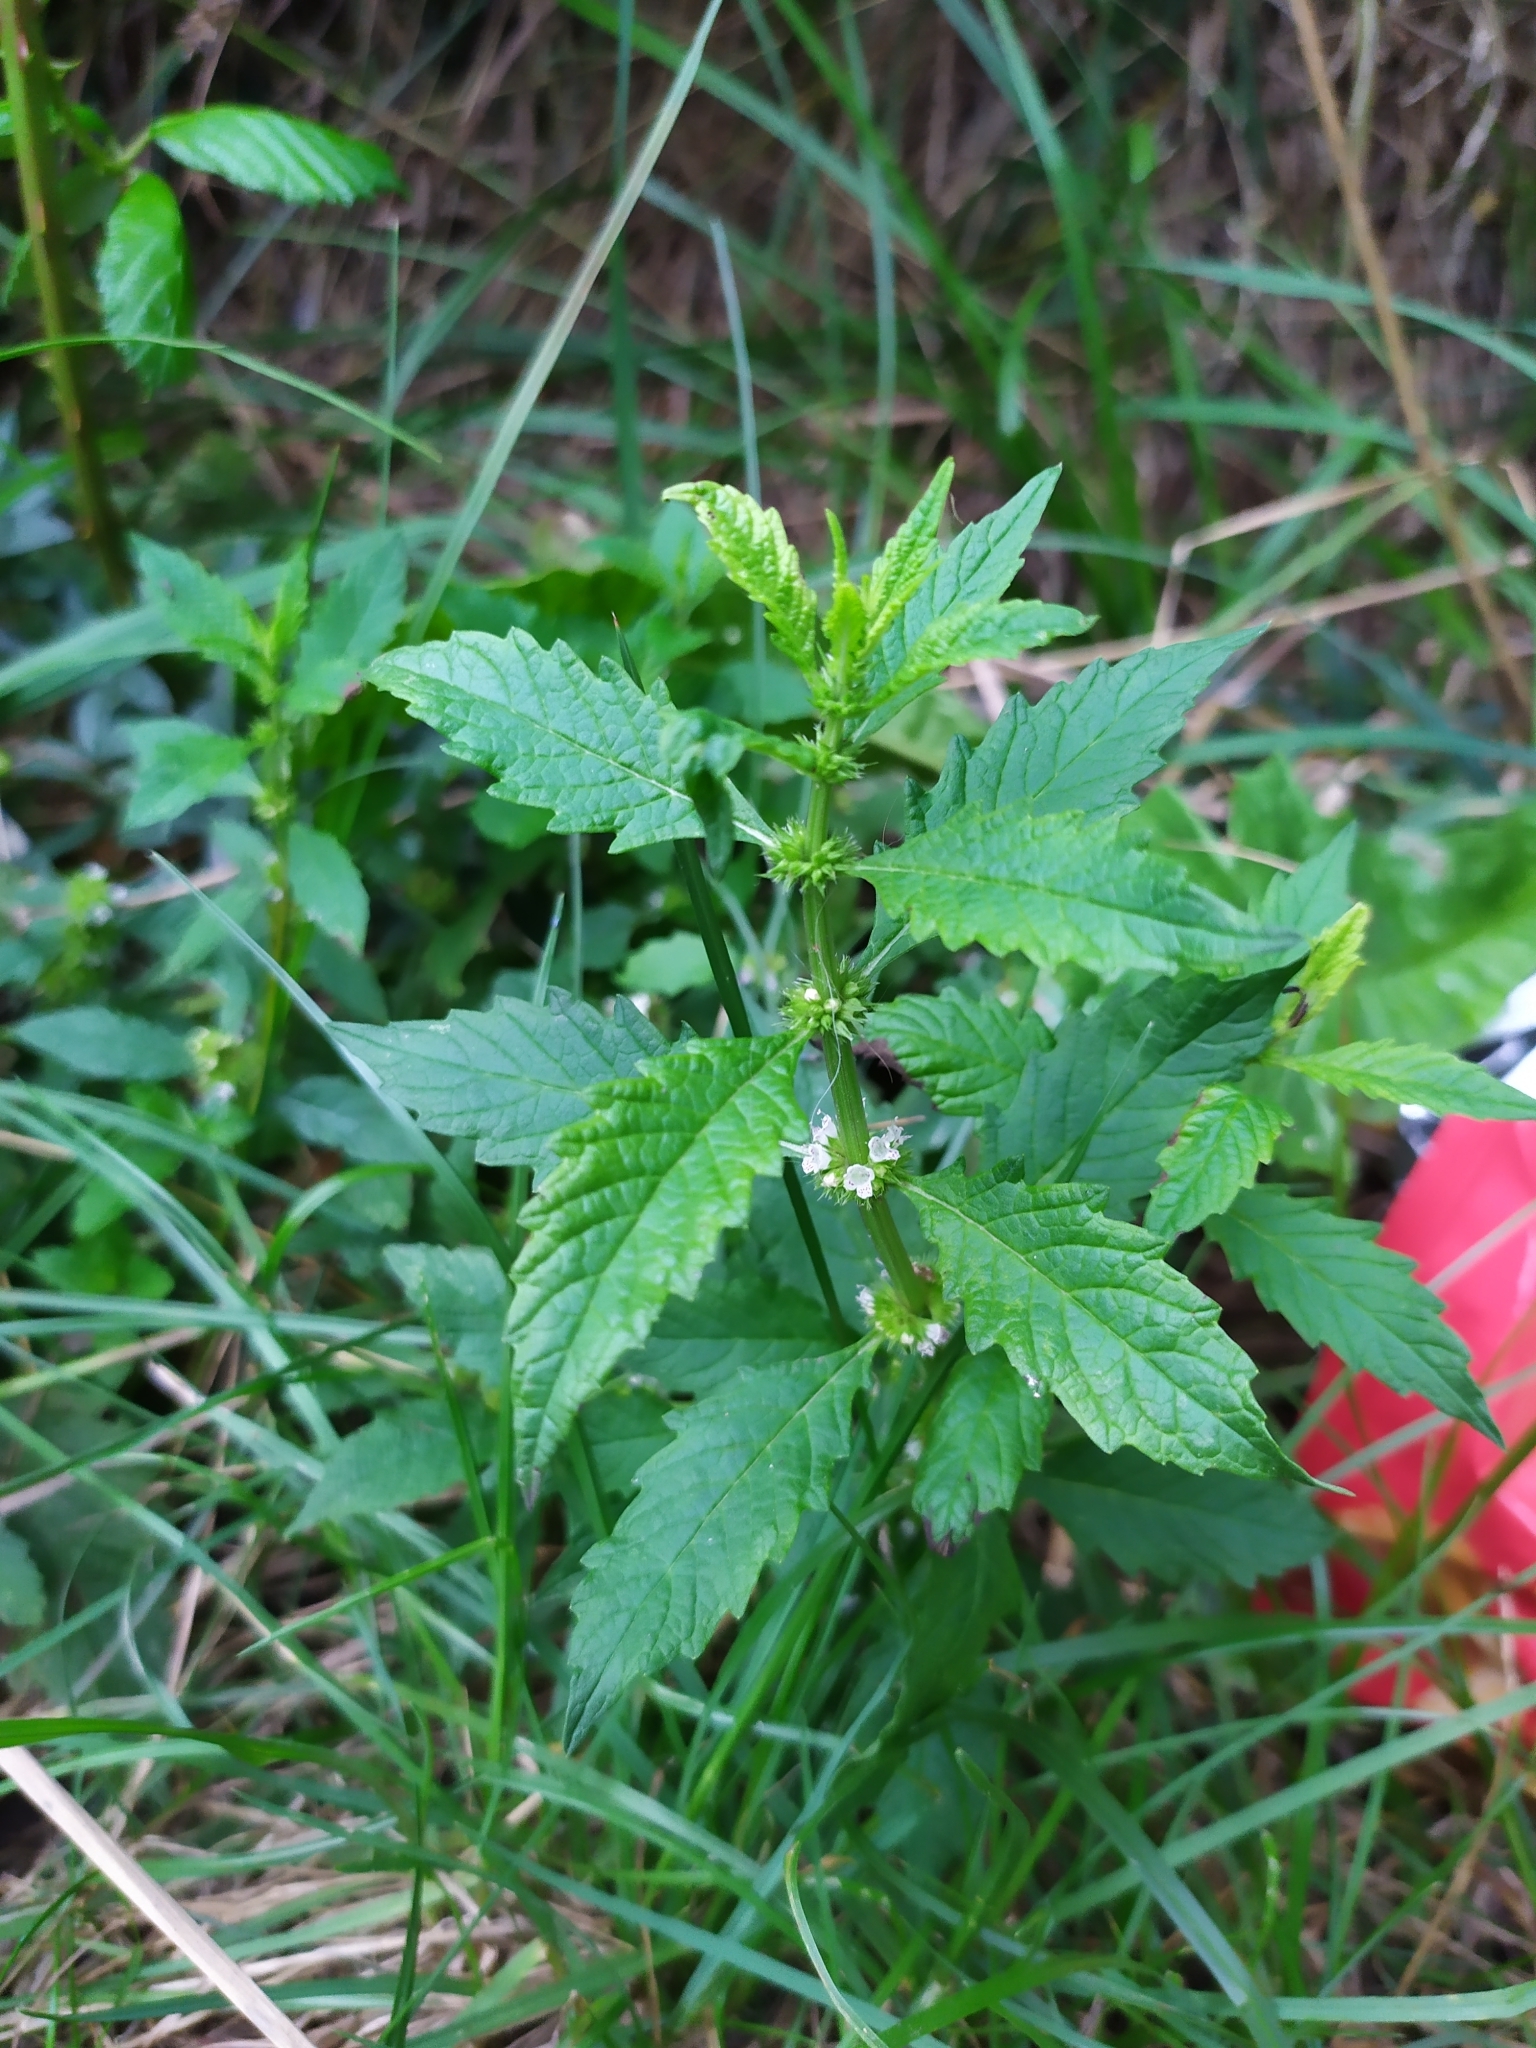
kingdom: Plantae
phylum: Tracheophyta
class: Magnoliopsida
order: Lamiales
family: Lamiaceae
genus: Lycopus
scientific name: Lycopus europaeus
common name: European bugleweed
